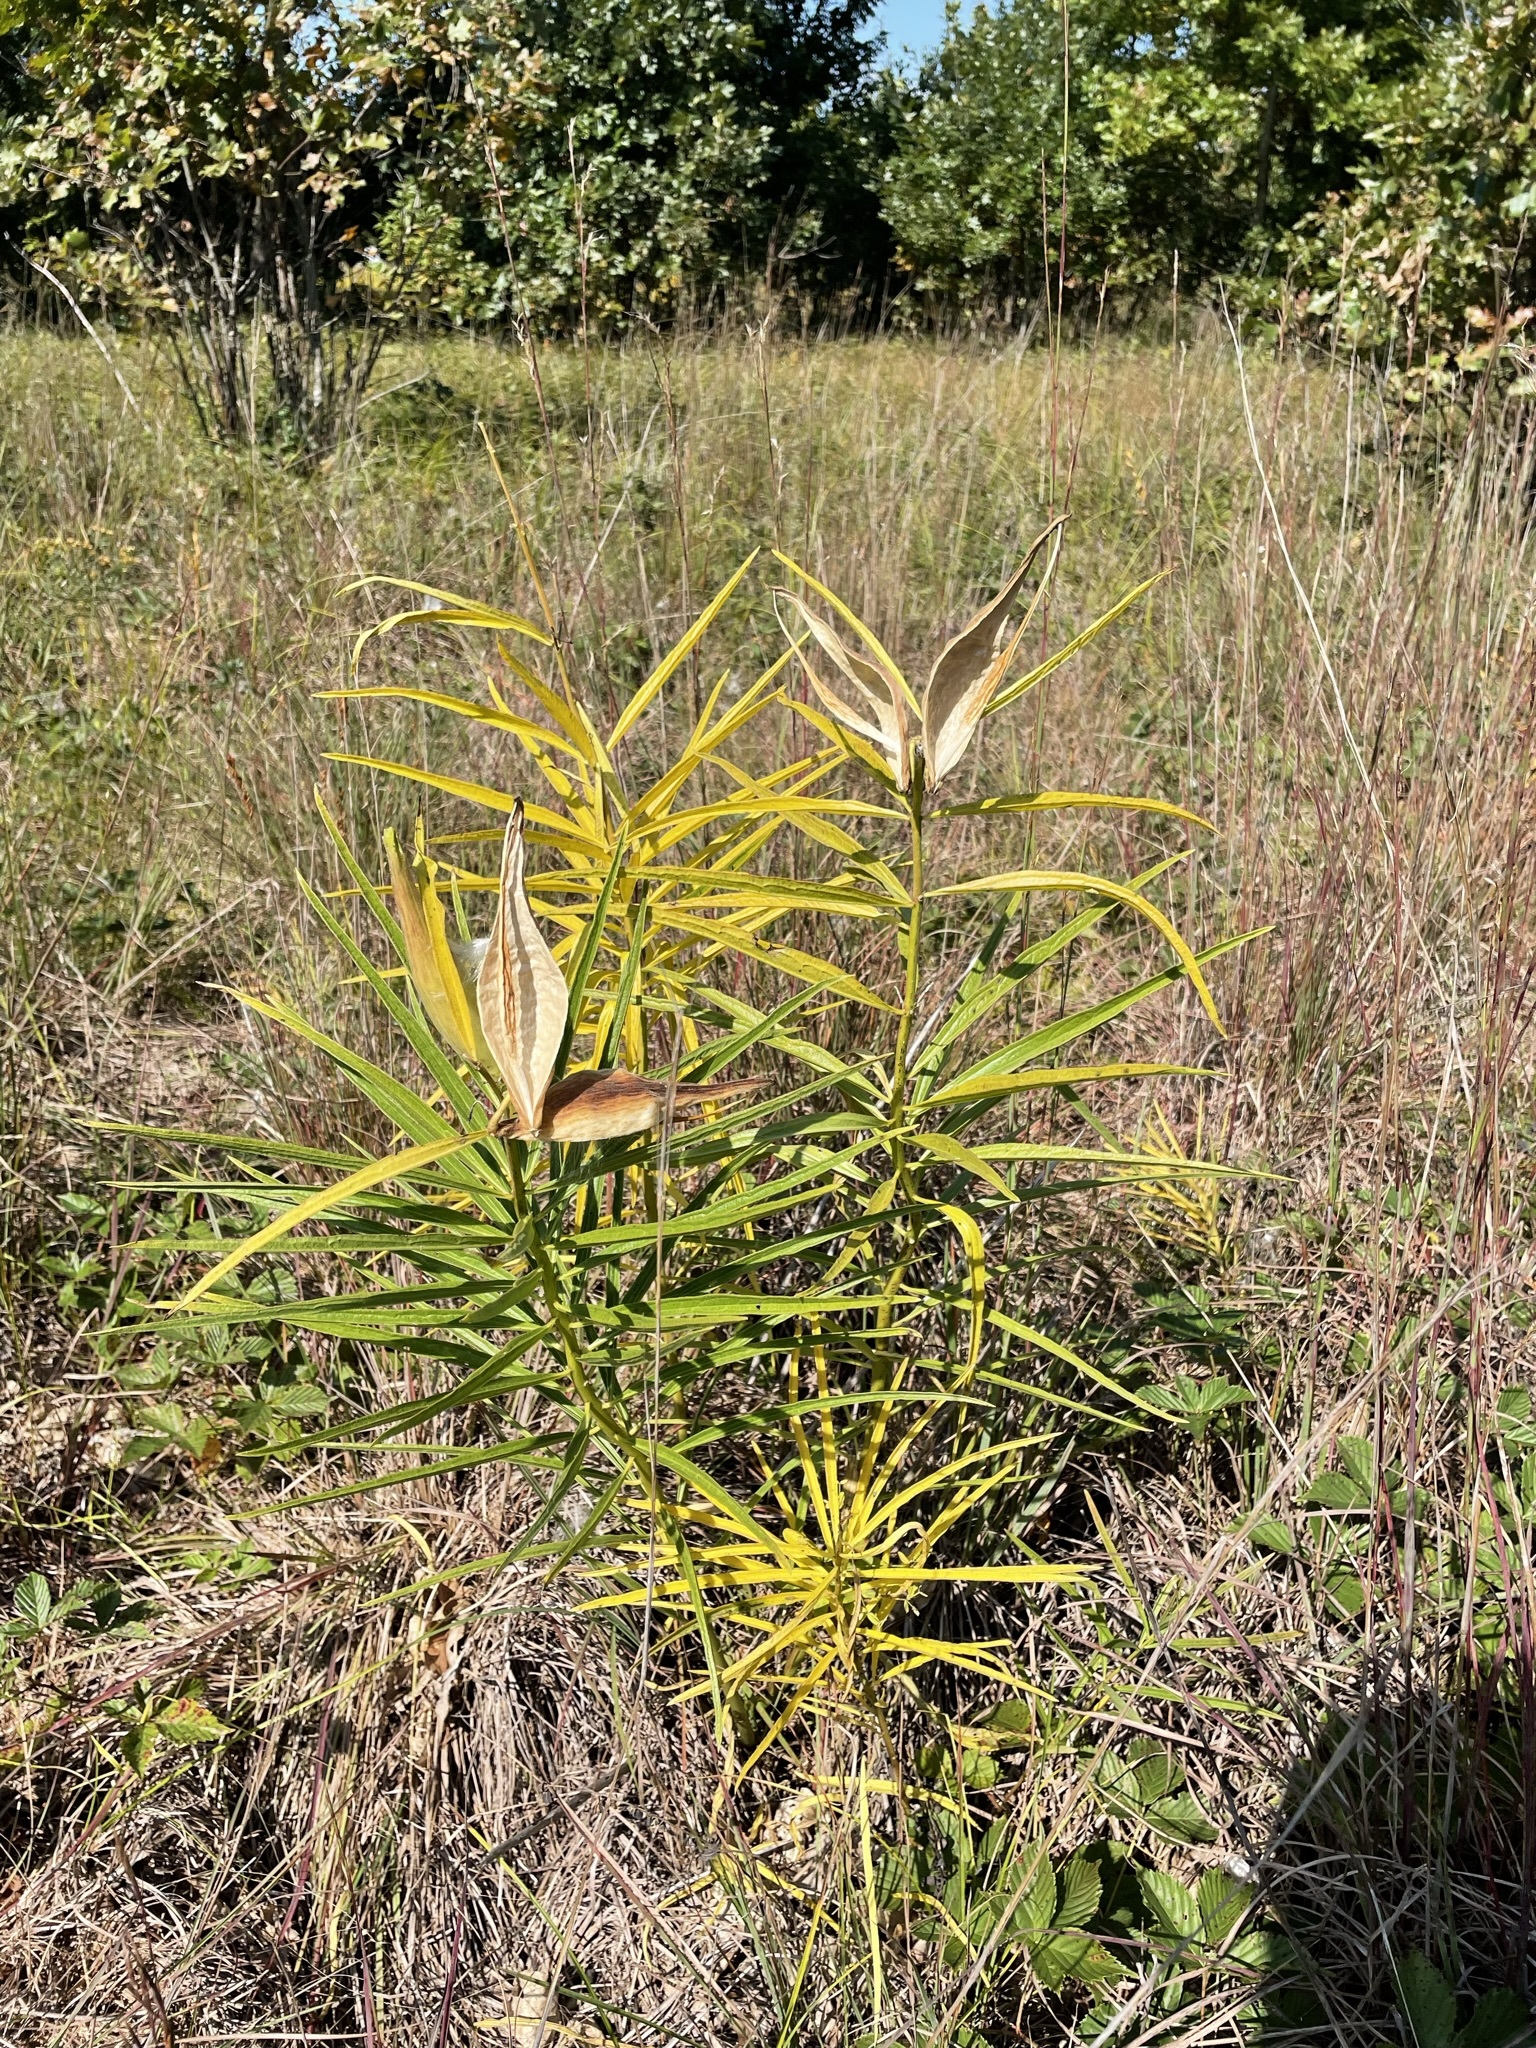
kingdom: Plantae
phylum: Tracheophyta
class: Magnoliopsida
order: Gentianales
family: Apocynaceae
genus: Asclepias
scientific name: Asclepias hirtella
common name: Prairie milkweed
